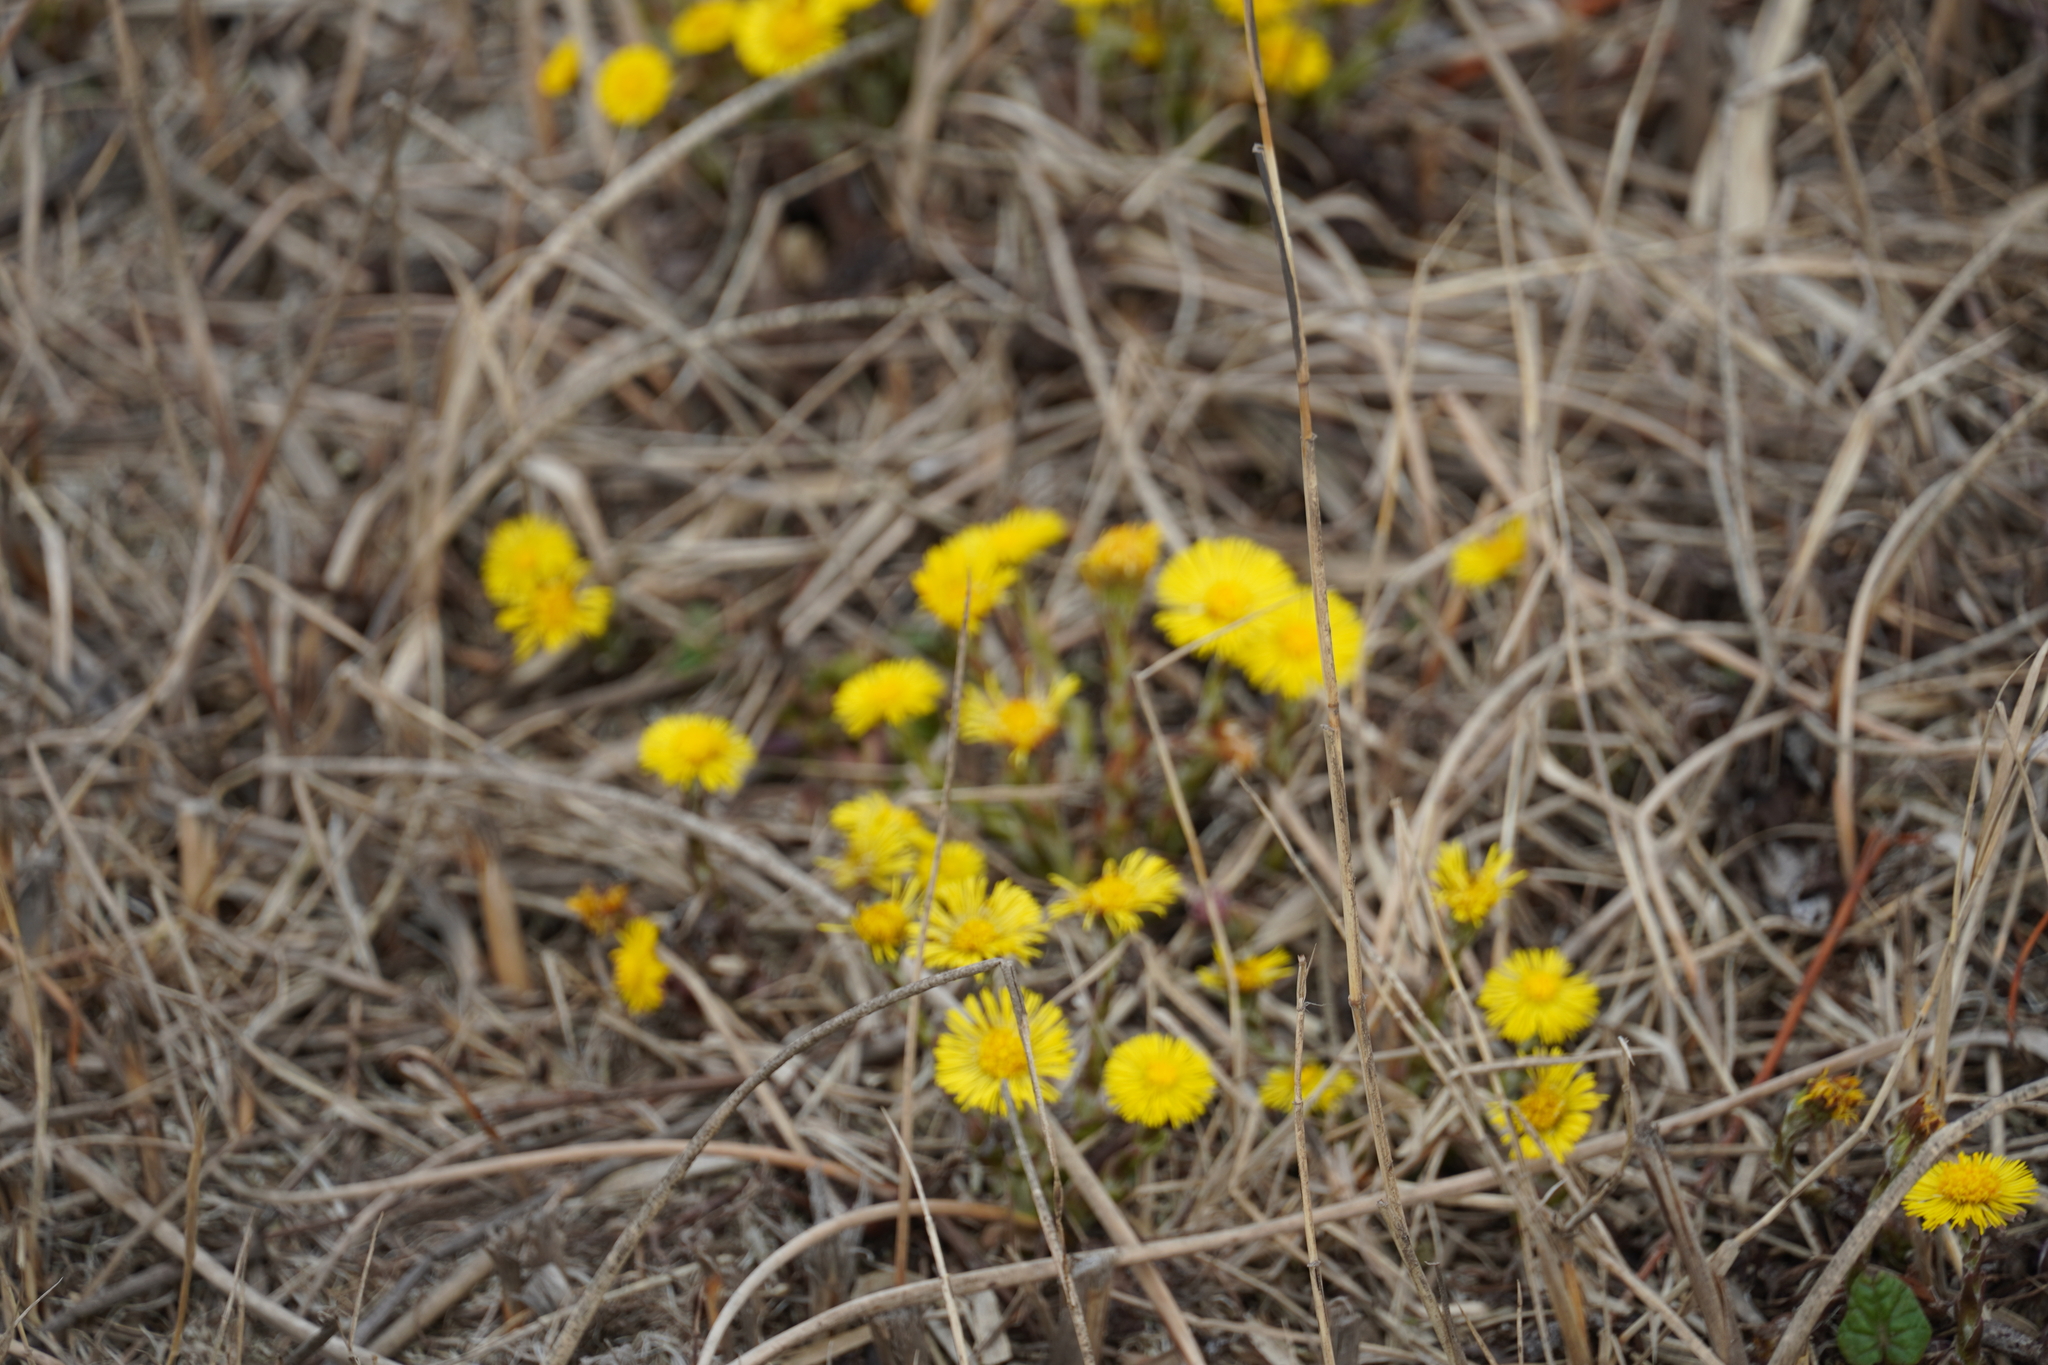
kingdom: Plantae
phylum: Tracheophyta
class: Magnoliopsida
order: Asterales
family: Asteraceae
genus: Tussilago
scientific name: Tussilago farfara
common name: Coltsfoot
